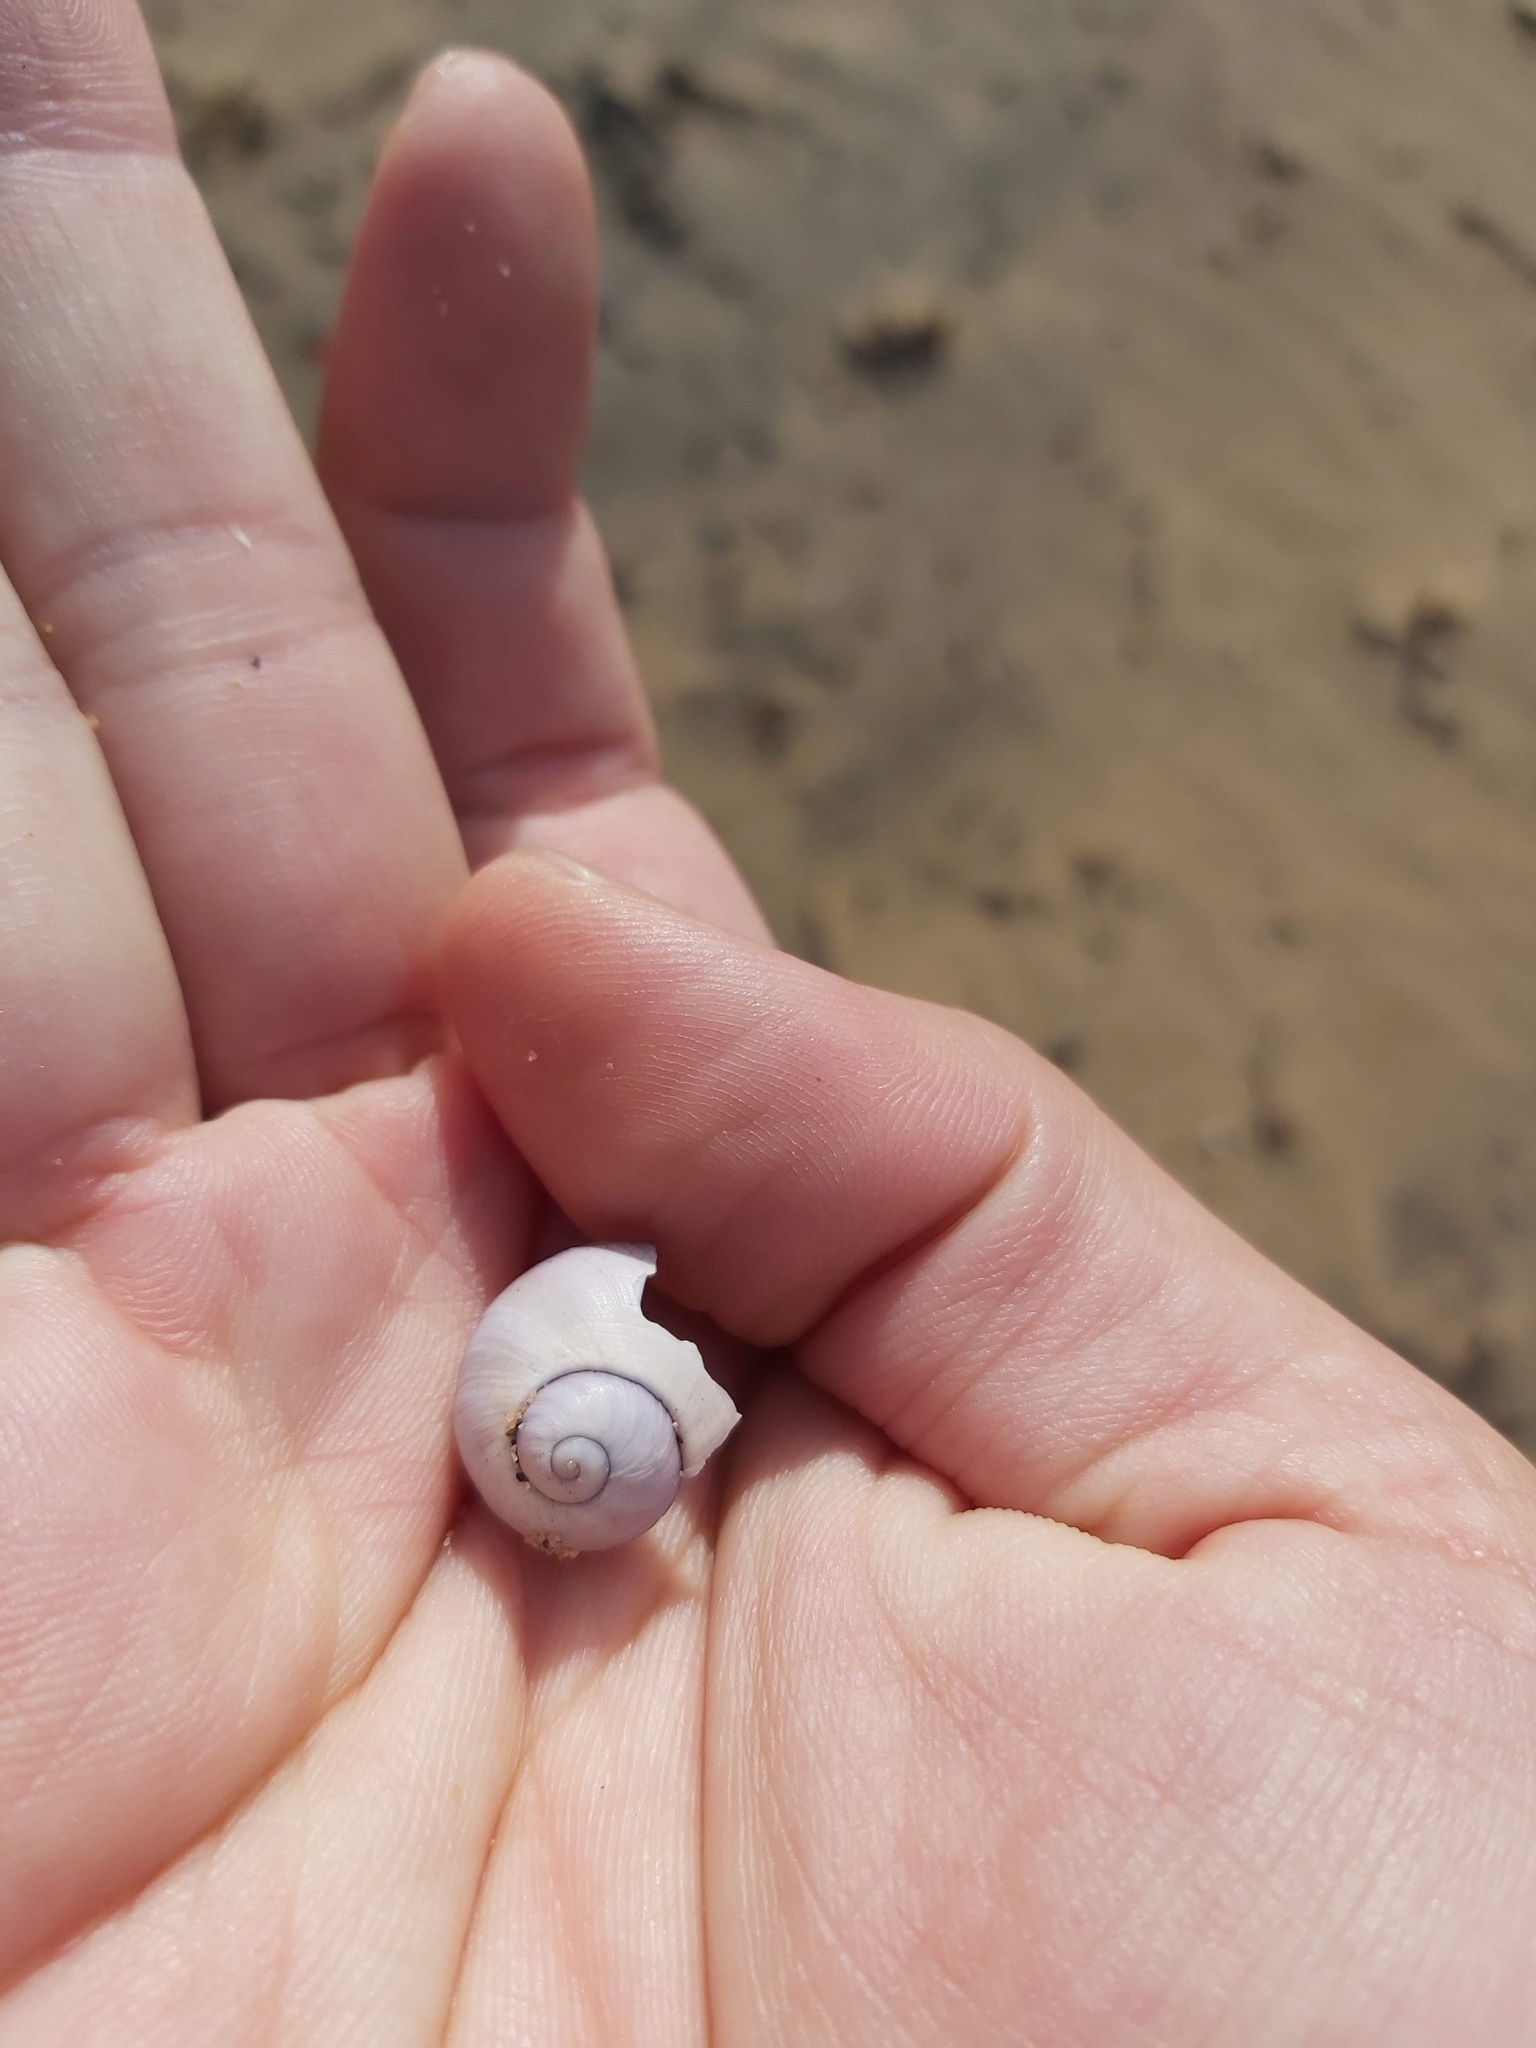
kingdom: Animalia
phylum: Mollusca
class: Gastropoda
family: Epitoniidae
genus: Janthina
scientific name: Janthina janthina
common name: Common janthina
